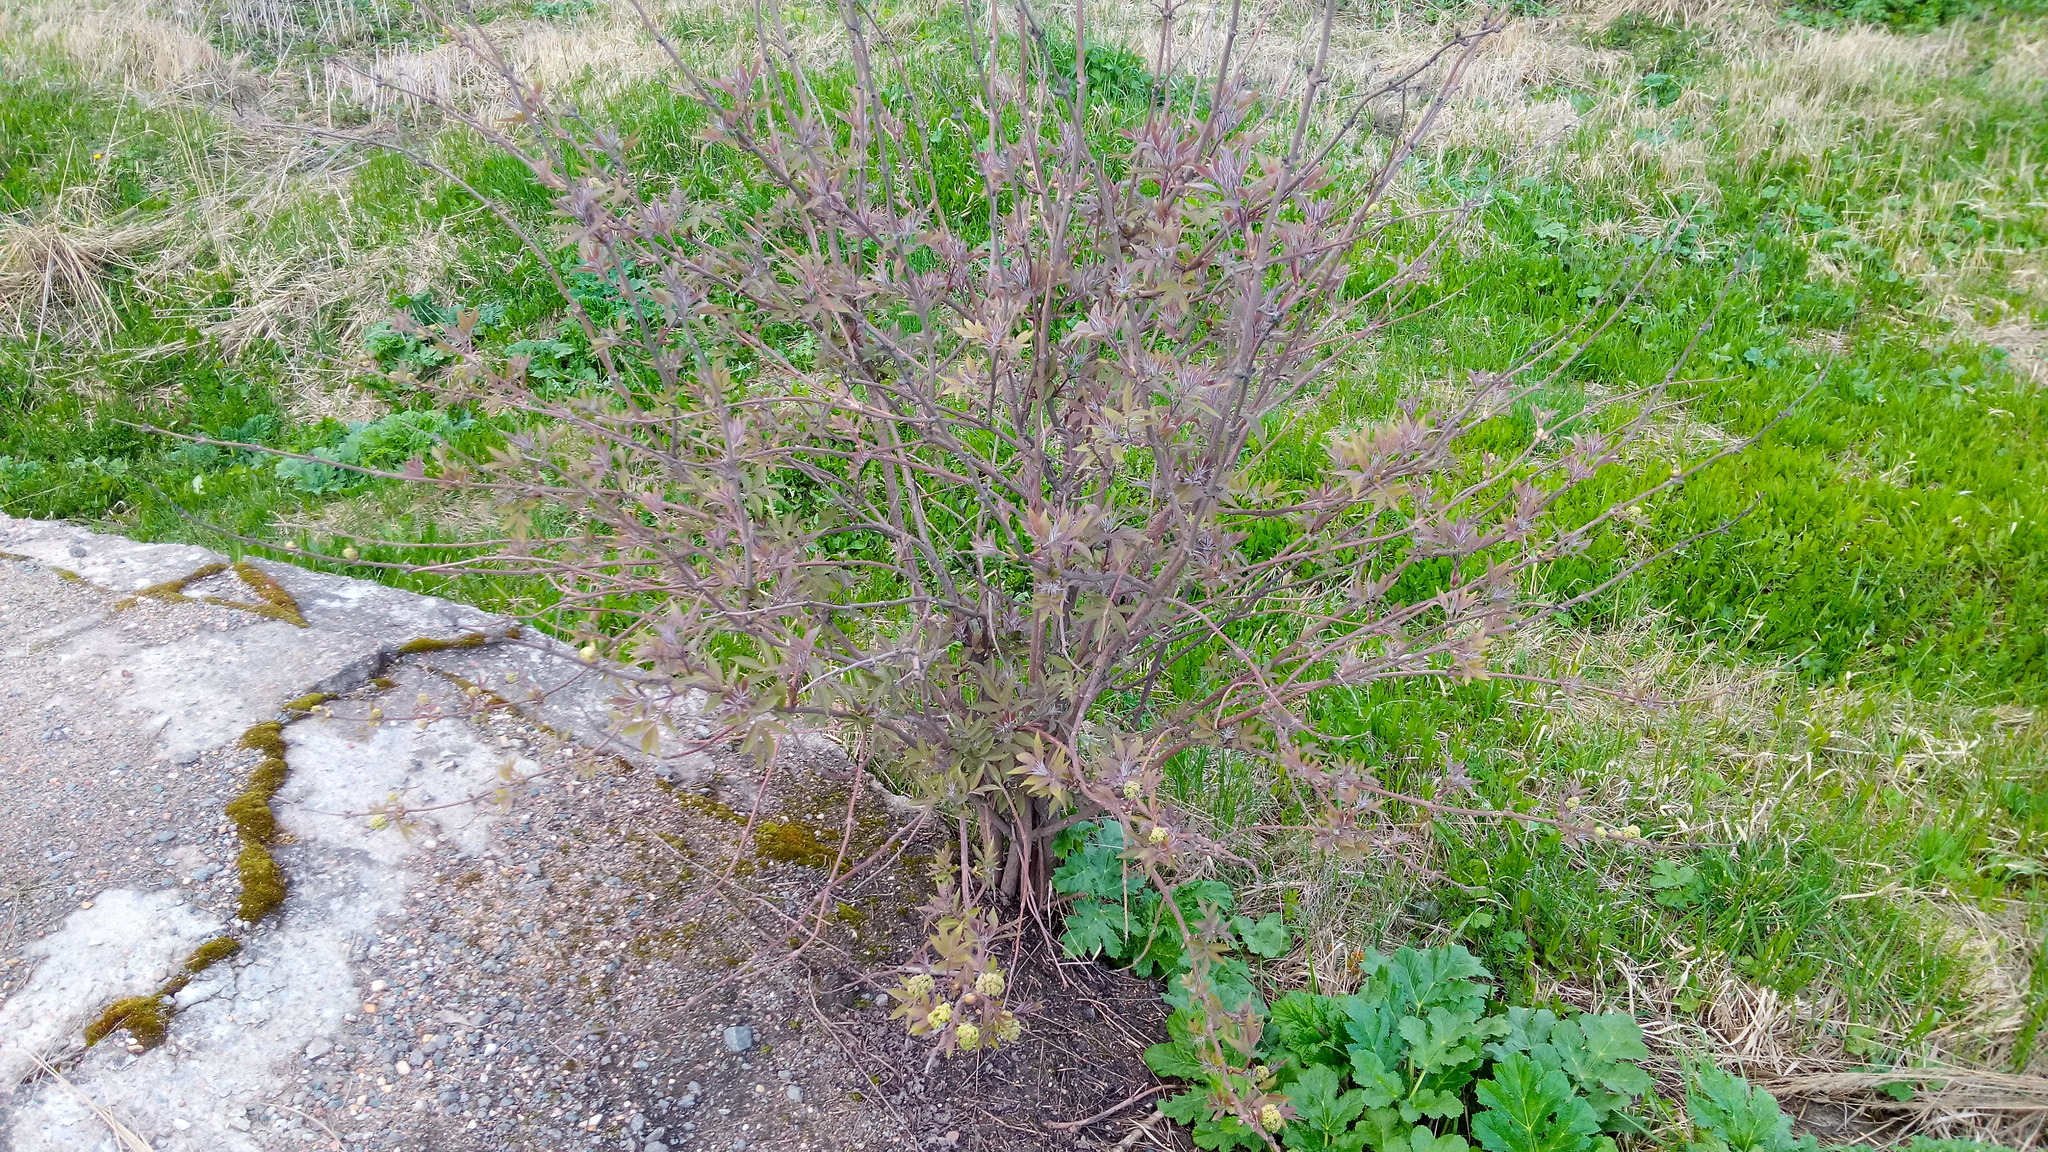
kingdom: Plantae
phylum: Tracheophyta
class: Magnoliopsida
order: Dipsacales
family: Viburnaceae
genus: Sambucus
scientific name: Sambucus racemosa
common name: Red-berried elder
